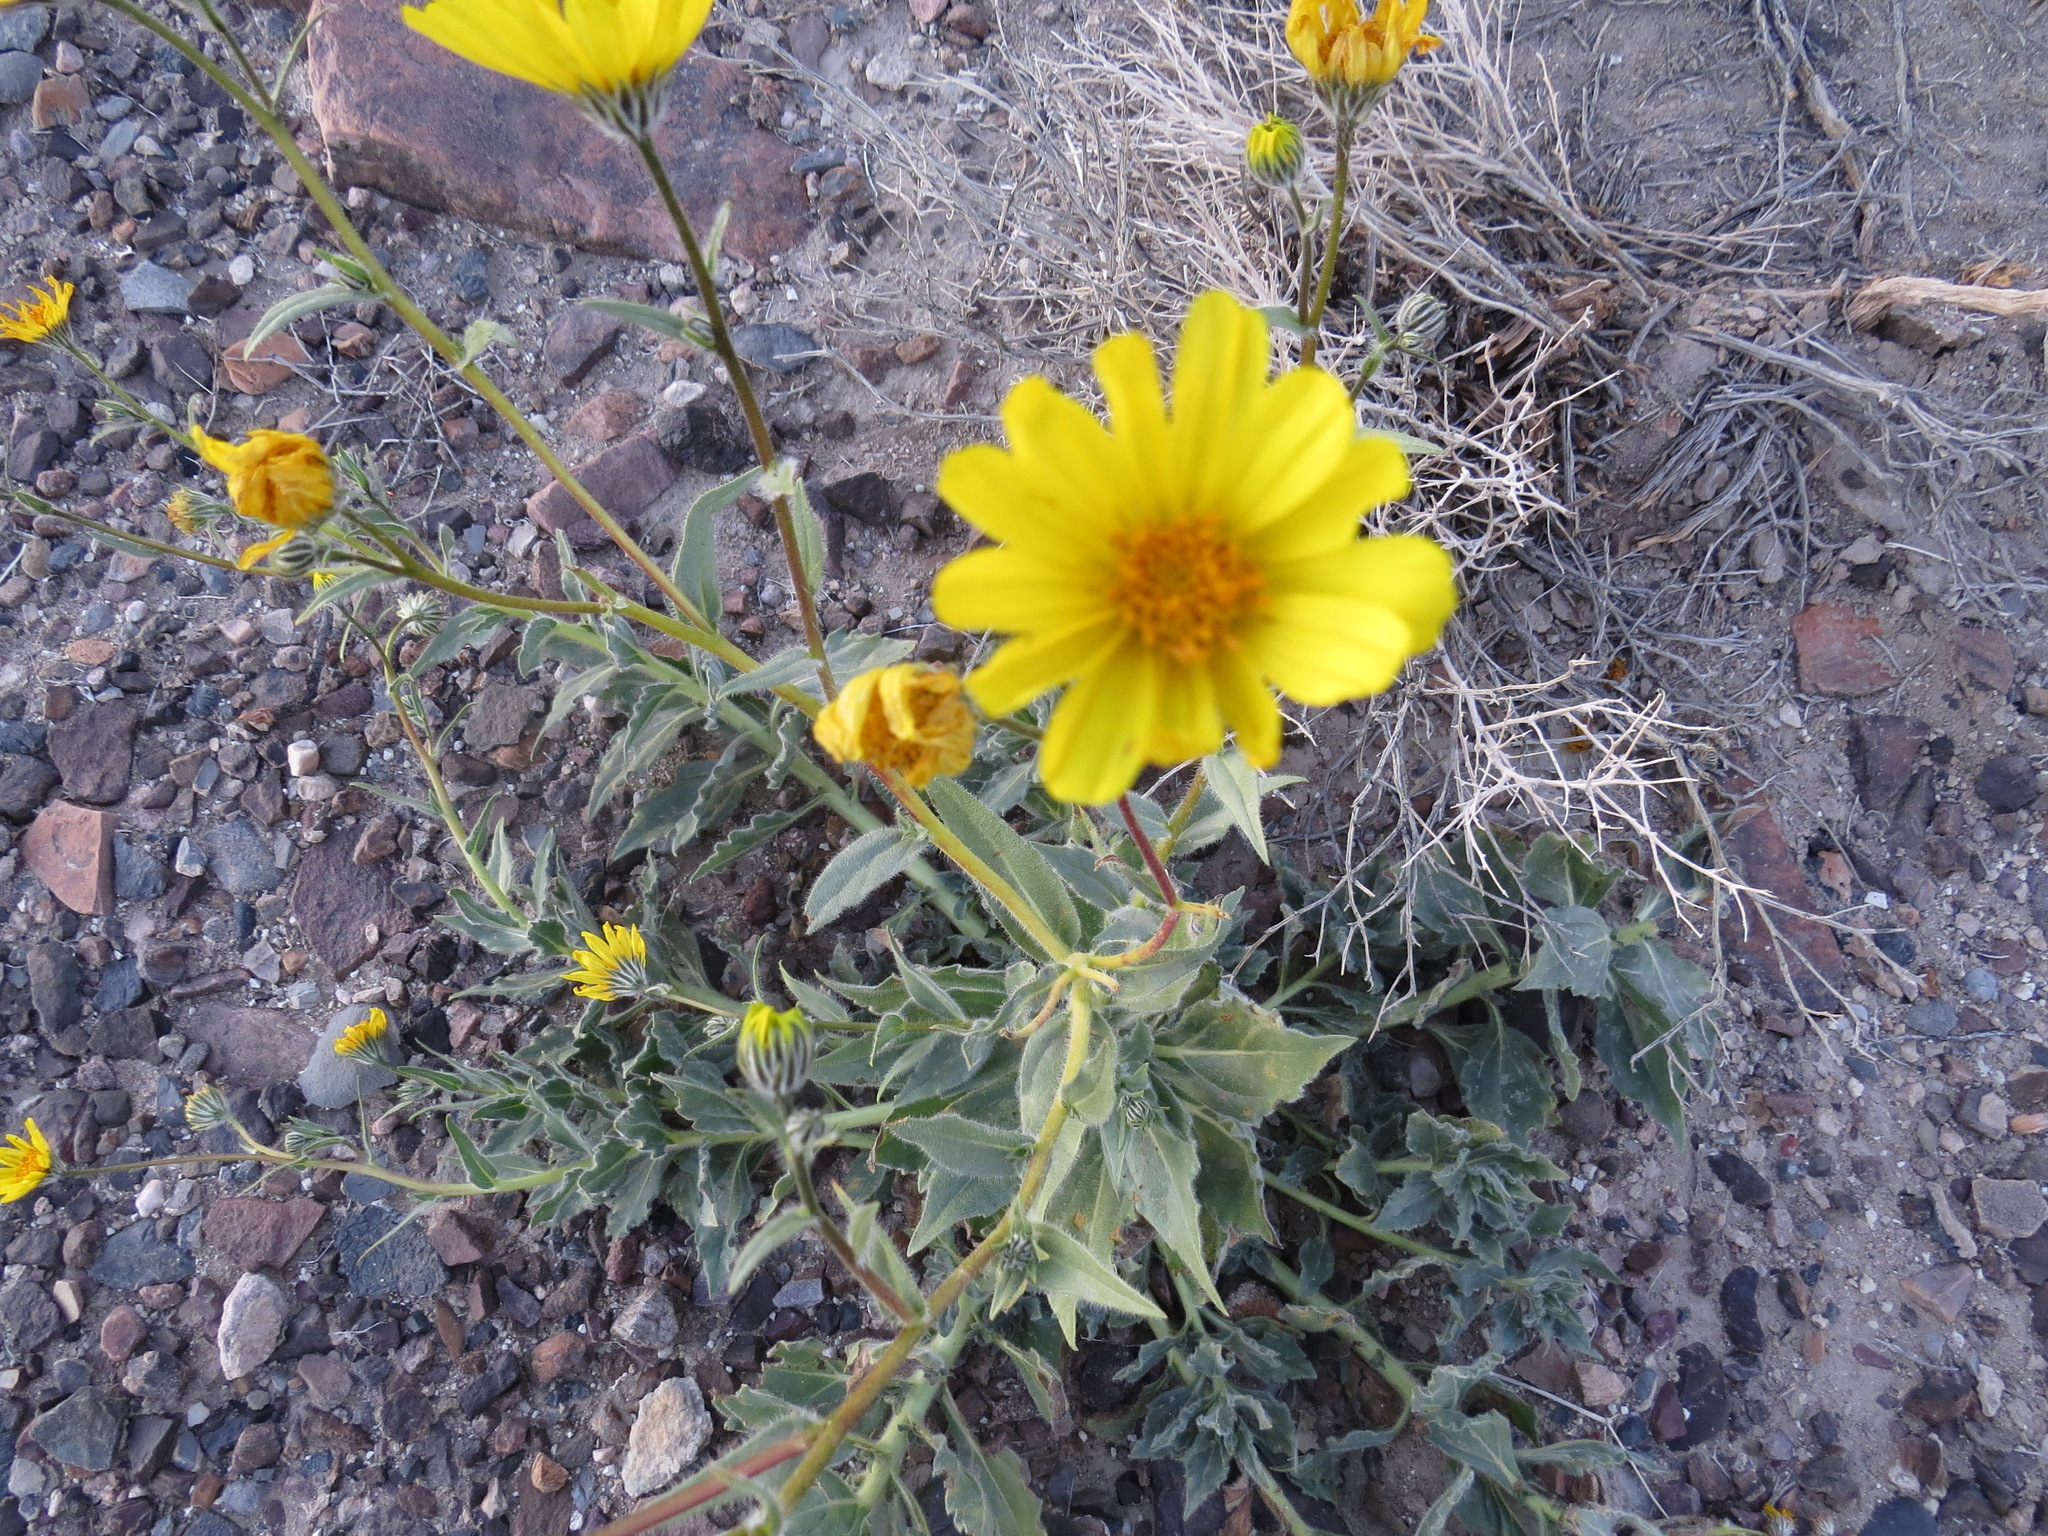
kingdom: Plantae
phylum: Tracheophyta
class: Magnoliopsida
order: Asterales
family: Asteraceae
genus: Geraea
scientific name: Geraea canescens
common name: Desert-gold
